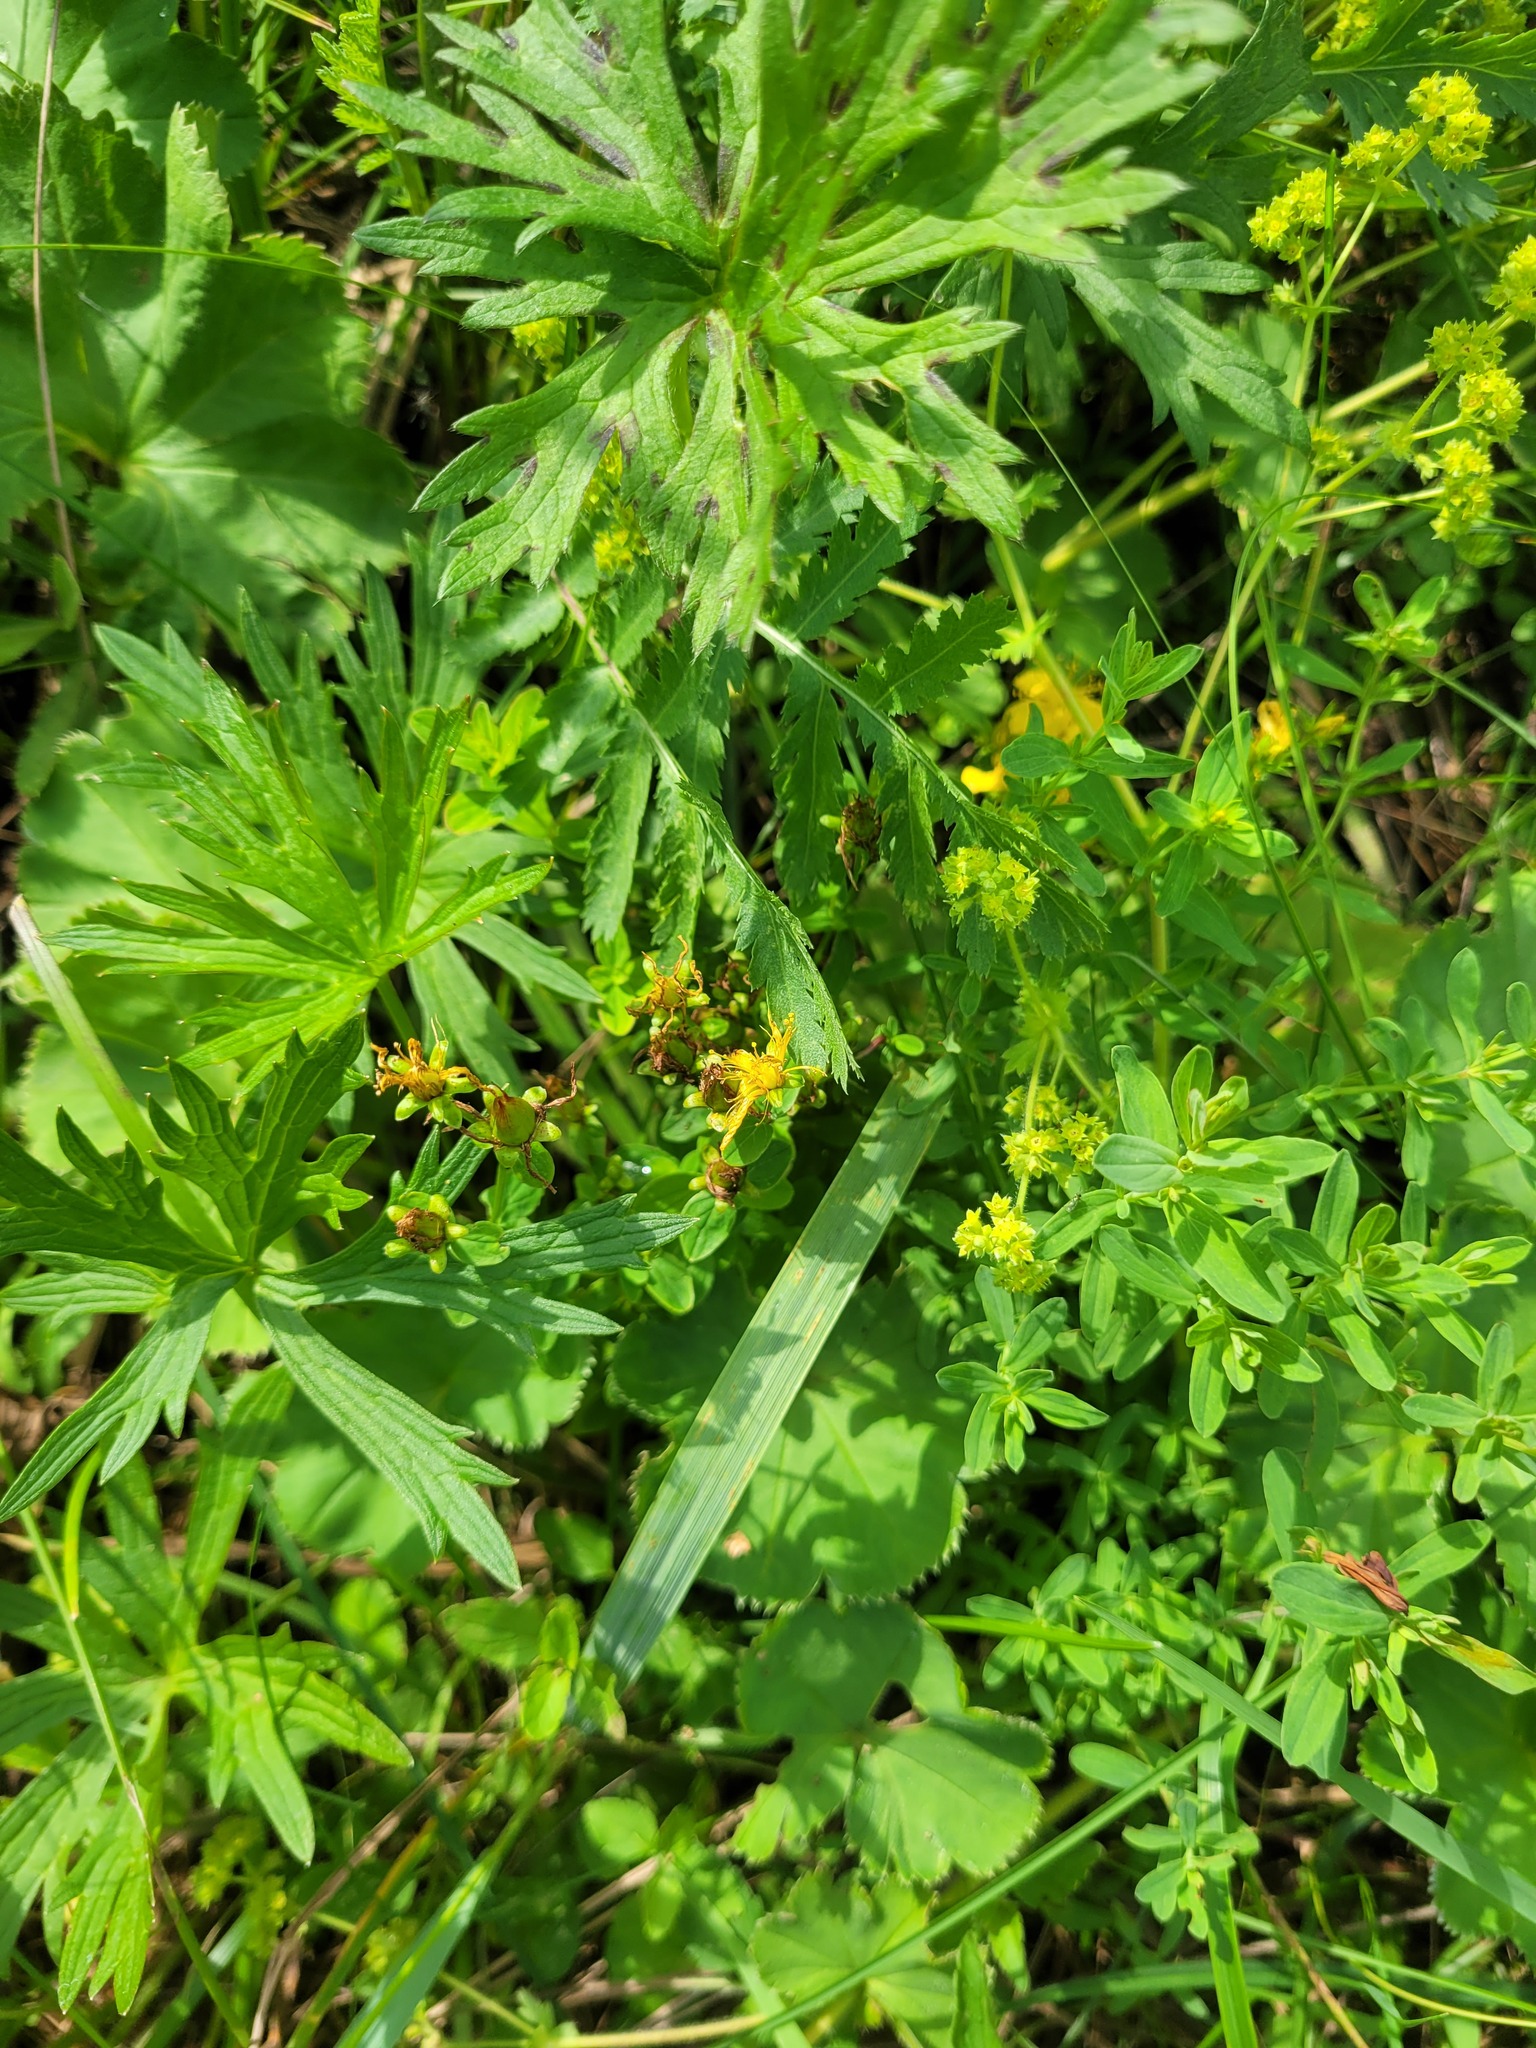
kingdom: Plantae
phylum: Tracheophyta
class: Magnoliopsida
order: Malpighiales
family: Hypericaceae
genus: Hypericum
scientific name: Hypericum maculatum
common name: Imperforate st. john's-wort
